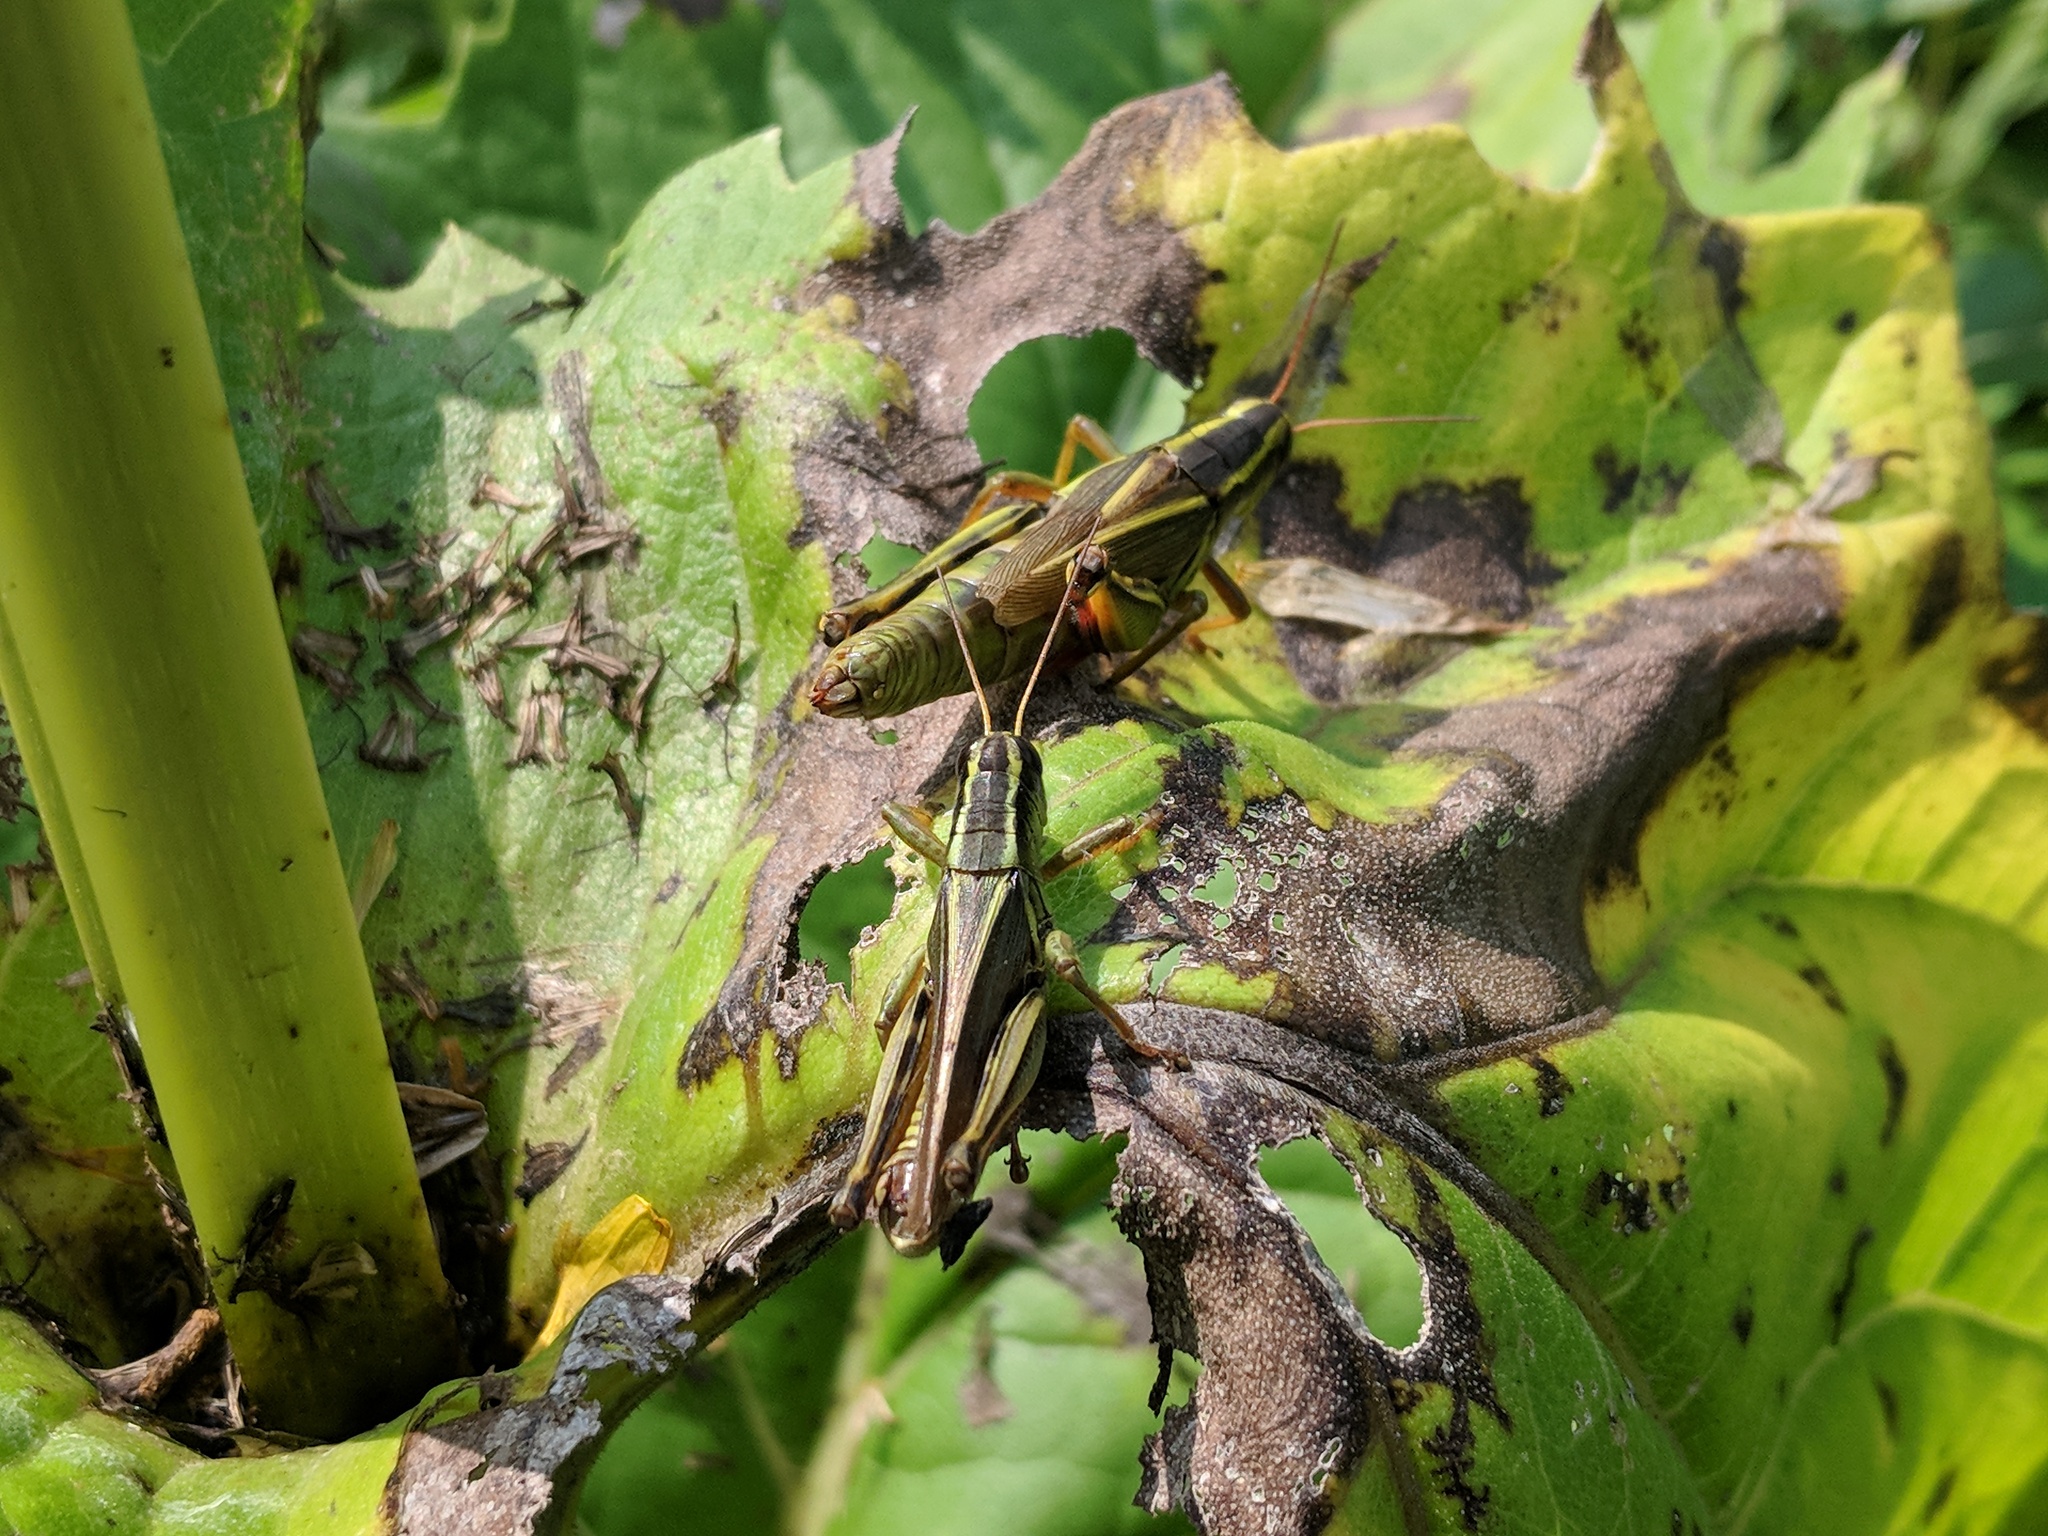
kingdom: Animalia
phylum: Arthropoda
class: Insecta
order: Orthoptera
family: Acrididae
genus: Melanoplus
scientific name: Melanoplus bivittatus
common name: Two-striped grasshopper
